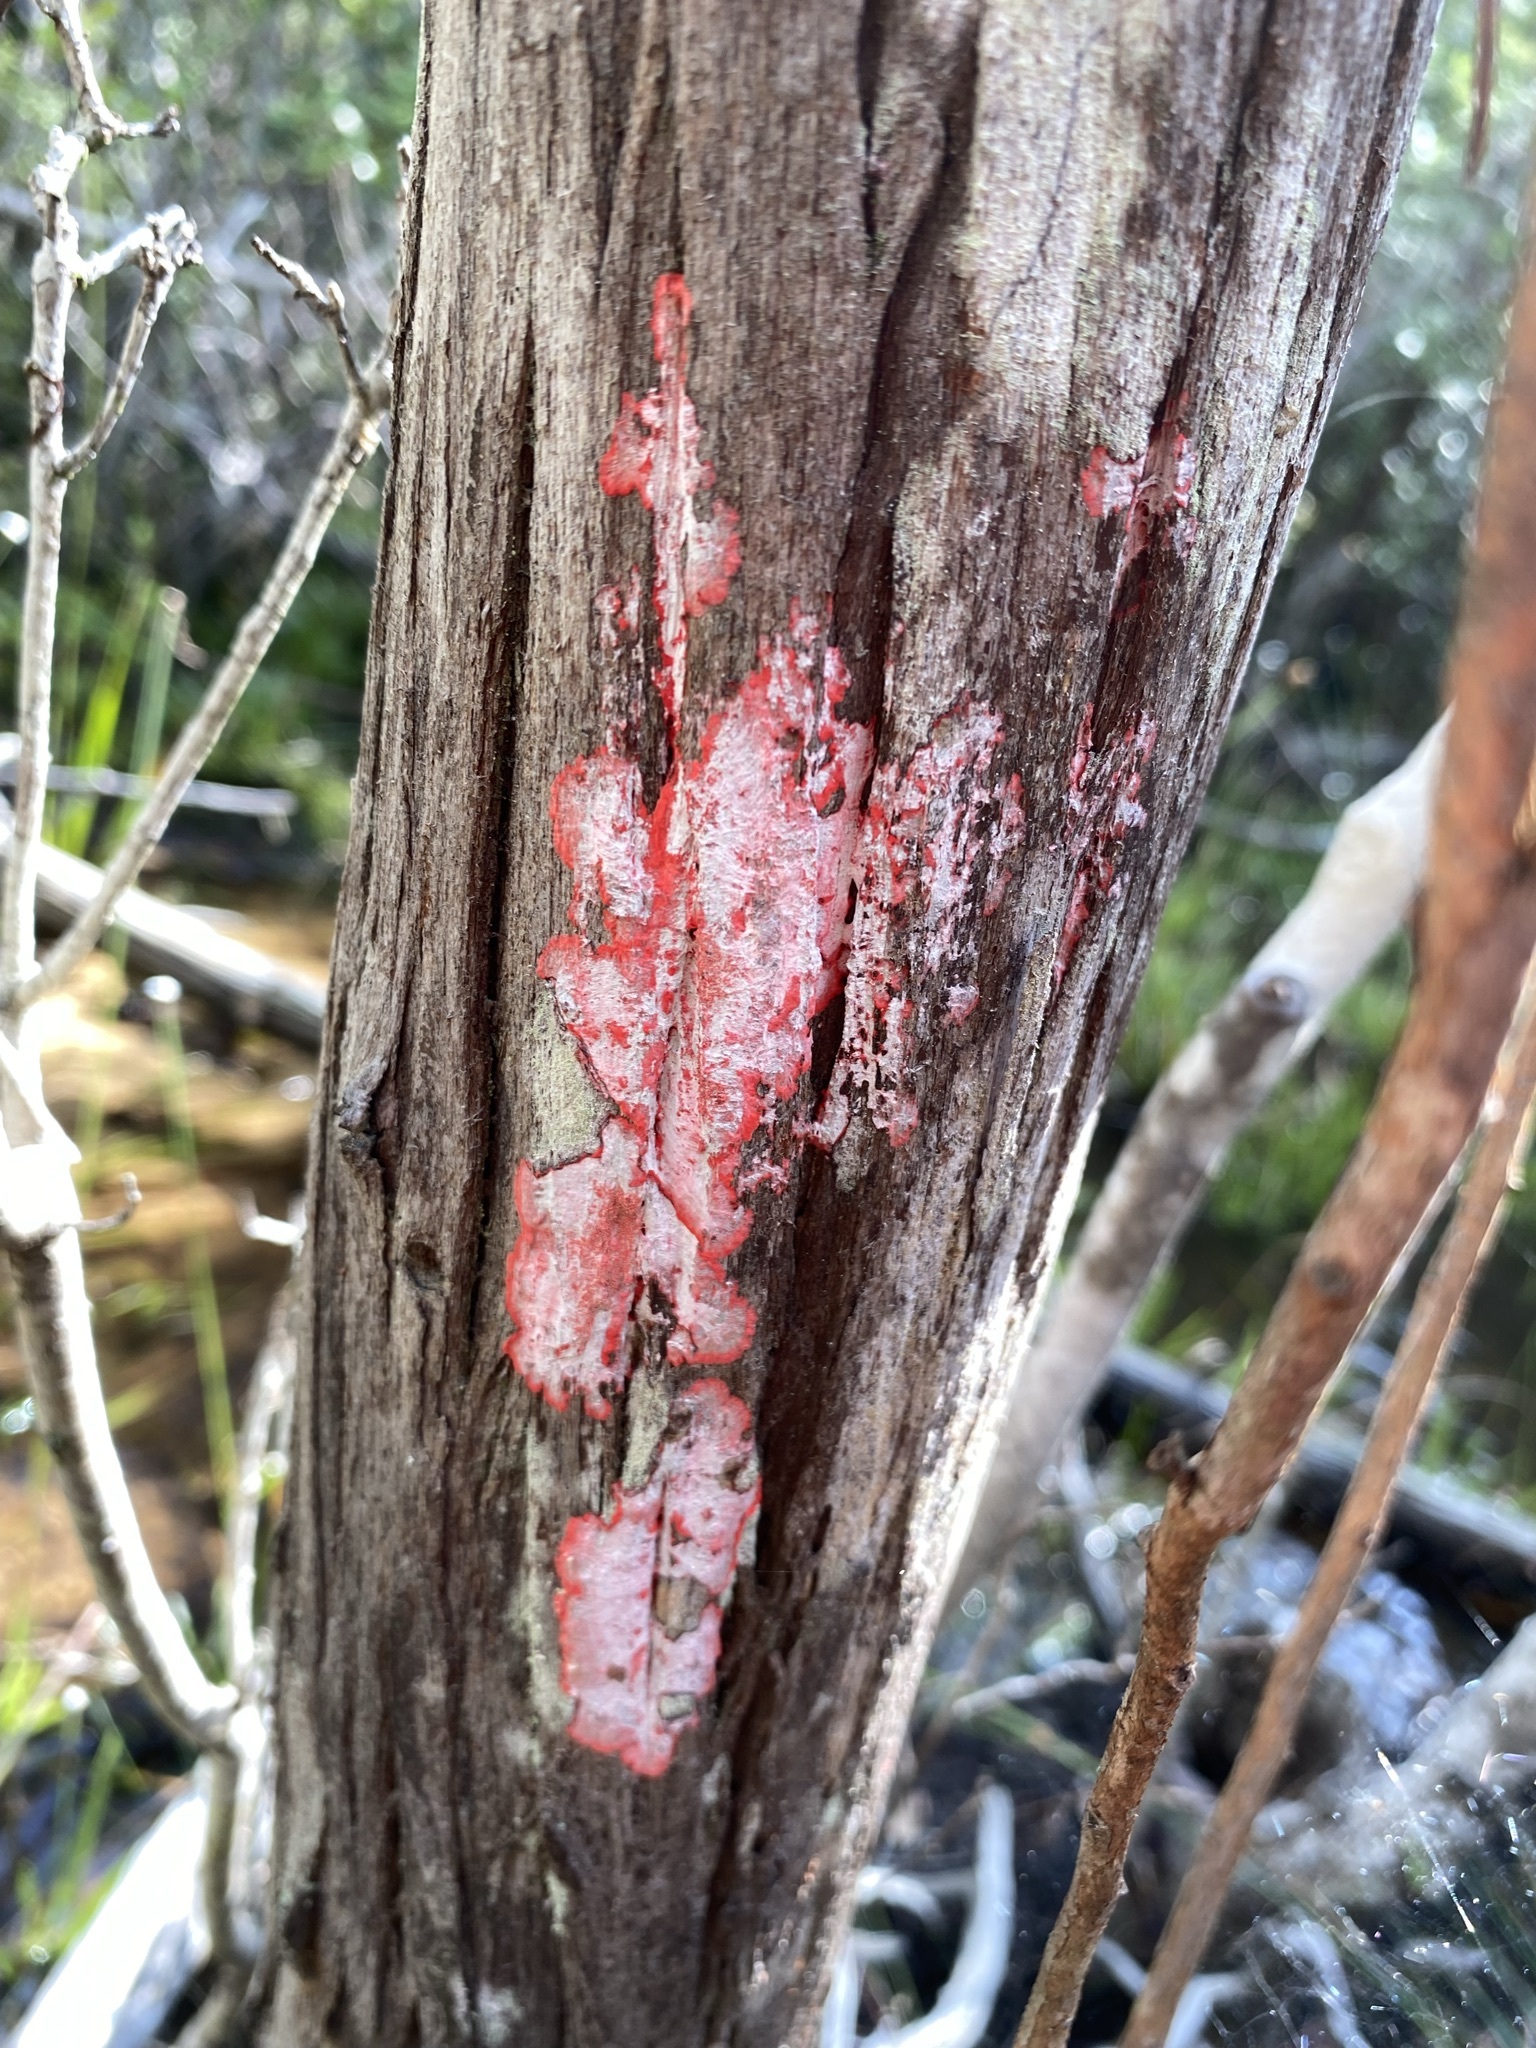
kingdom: Fungi
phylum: Ascomycota
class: Arthoniomycetes
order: Arthoniales
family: Arthoniaceae
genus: Herpothallon
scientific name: Herpothallon rubrocinctum
